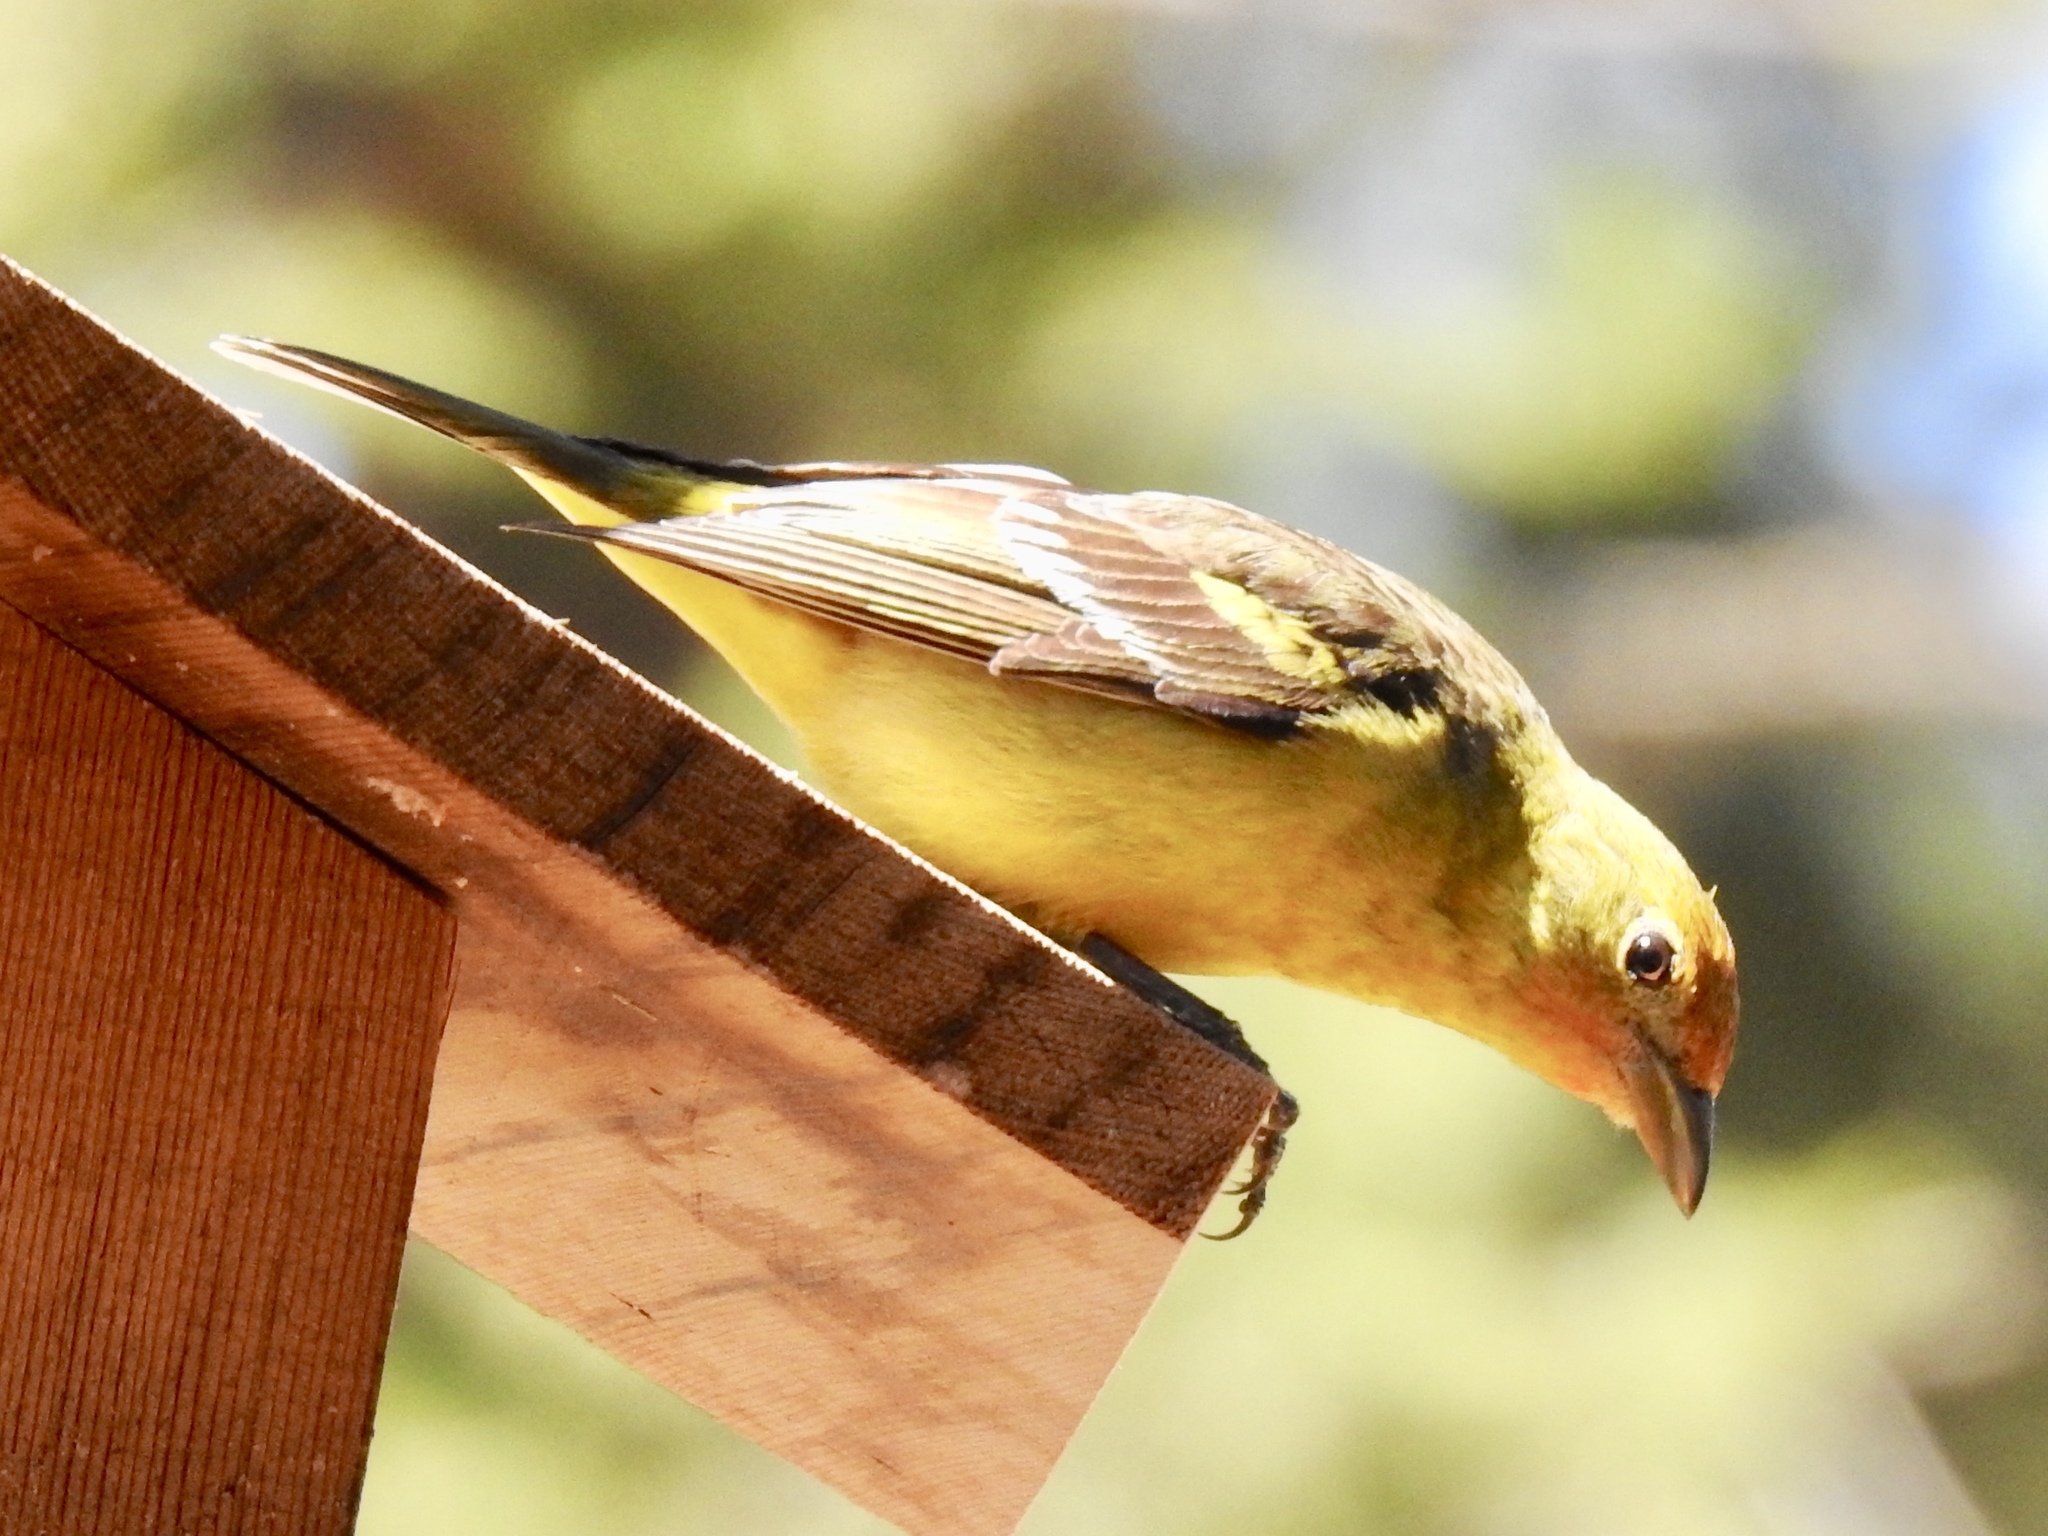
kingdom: Animalia
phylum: Chordata
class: Aves
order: Passeriformes
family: Cardinalidae
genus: Piranga
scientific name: Piranga ludoviciana
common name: Western tanager
